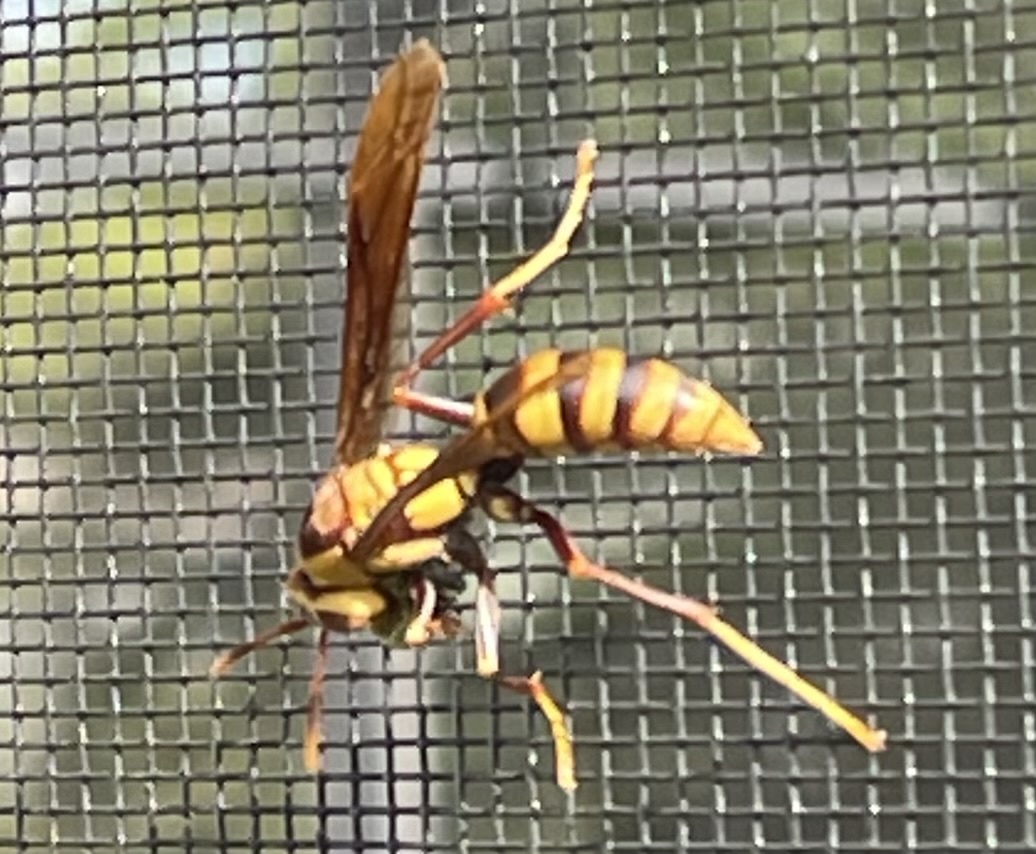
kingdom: Animalia
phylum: Arthropoda
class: Insecta
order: Hymenoptera
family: Eumenidae
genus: Polistes
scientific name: Polistes major
